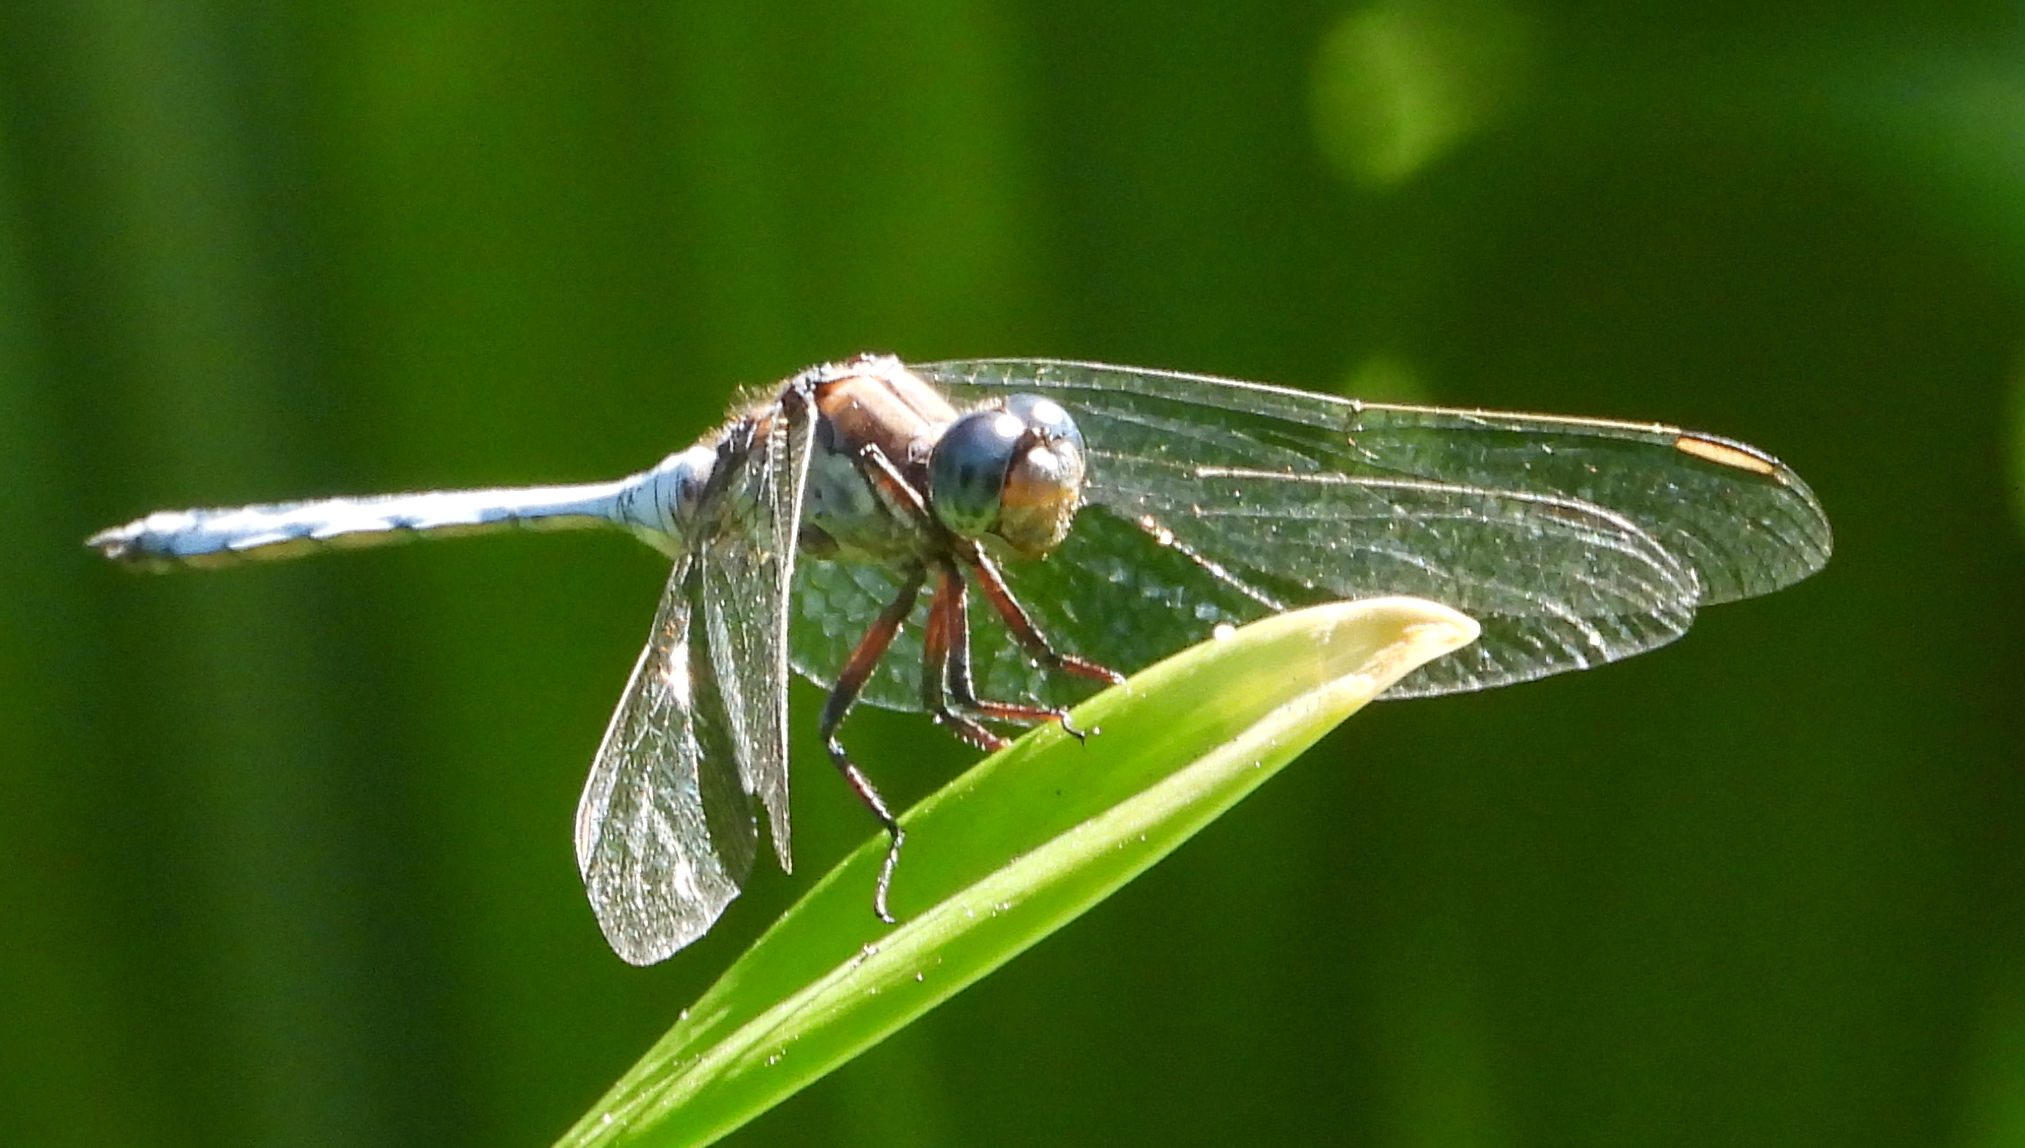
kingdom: Animalia
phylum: Arthropoda
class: Insecta
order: Odonata
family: Libellulidae
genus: Orthetrum
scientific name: Orthetrum julia
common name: Julia skimmer
